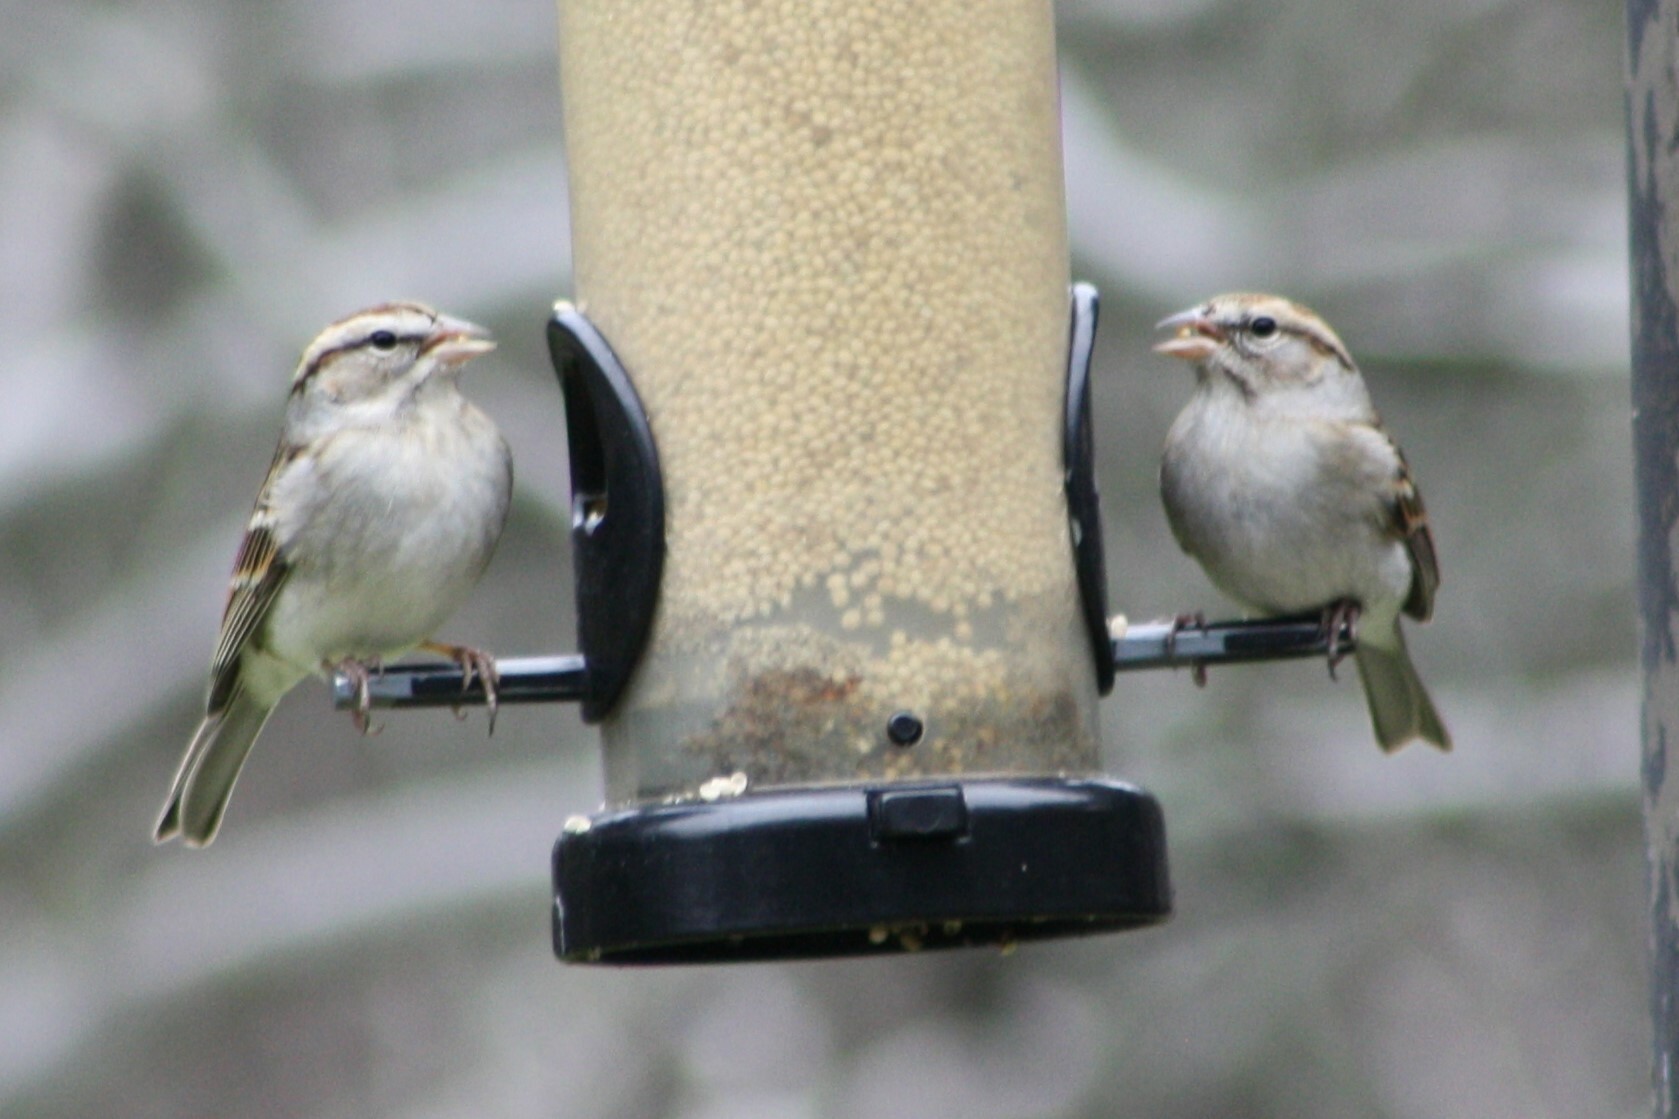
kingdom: Animalia
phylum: Chordata
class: Aves
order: Passeriformes
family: Passerellidae
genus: Spizella
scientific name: Spizella passerina
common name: Chipping sparrow
